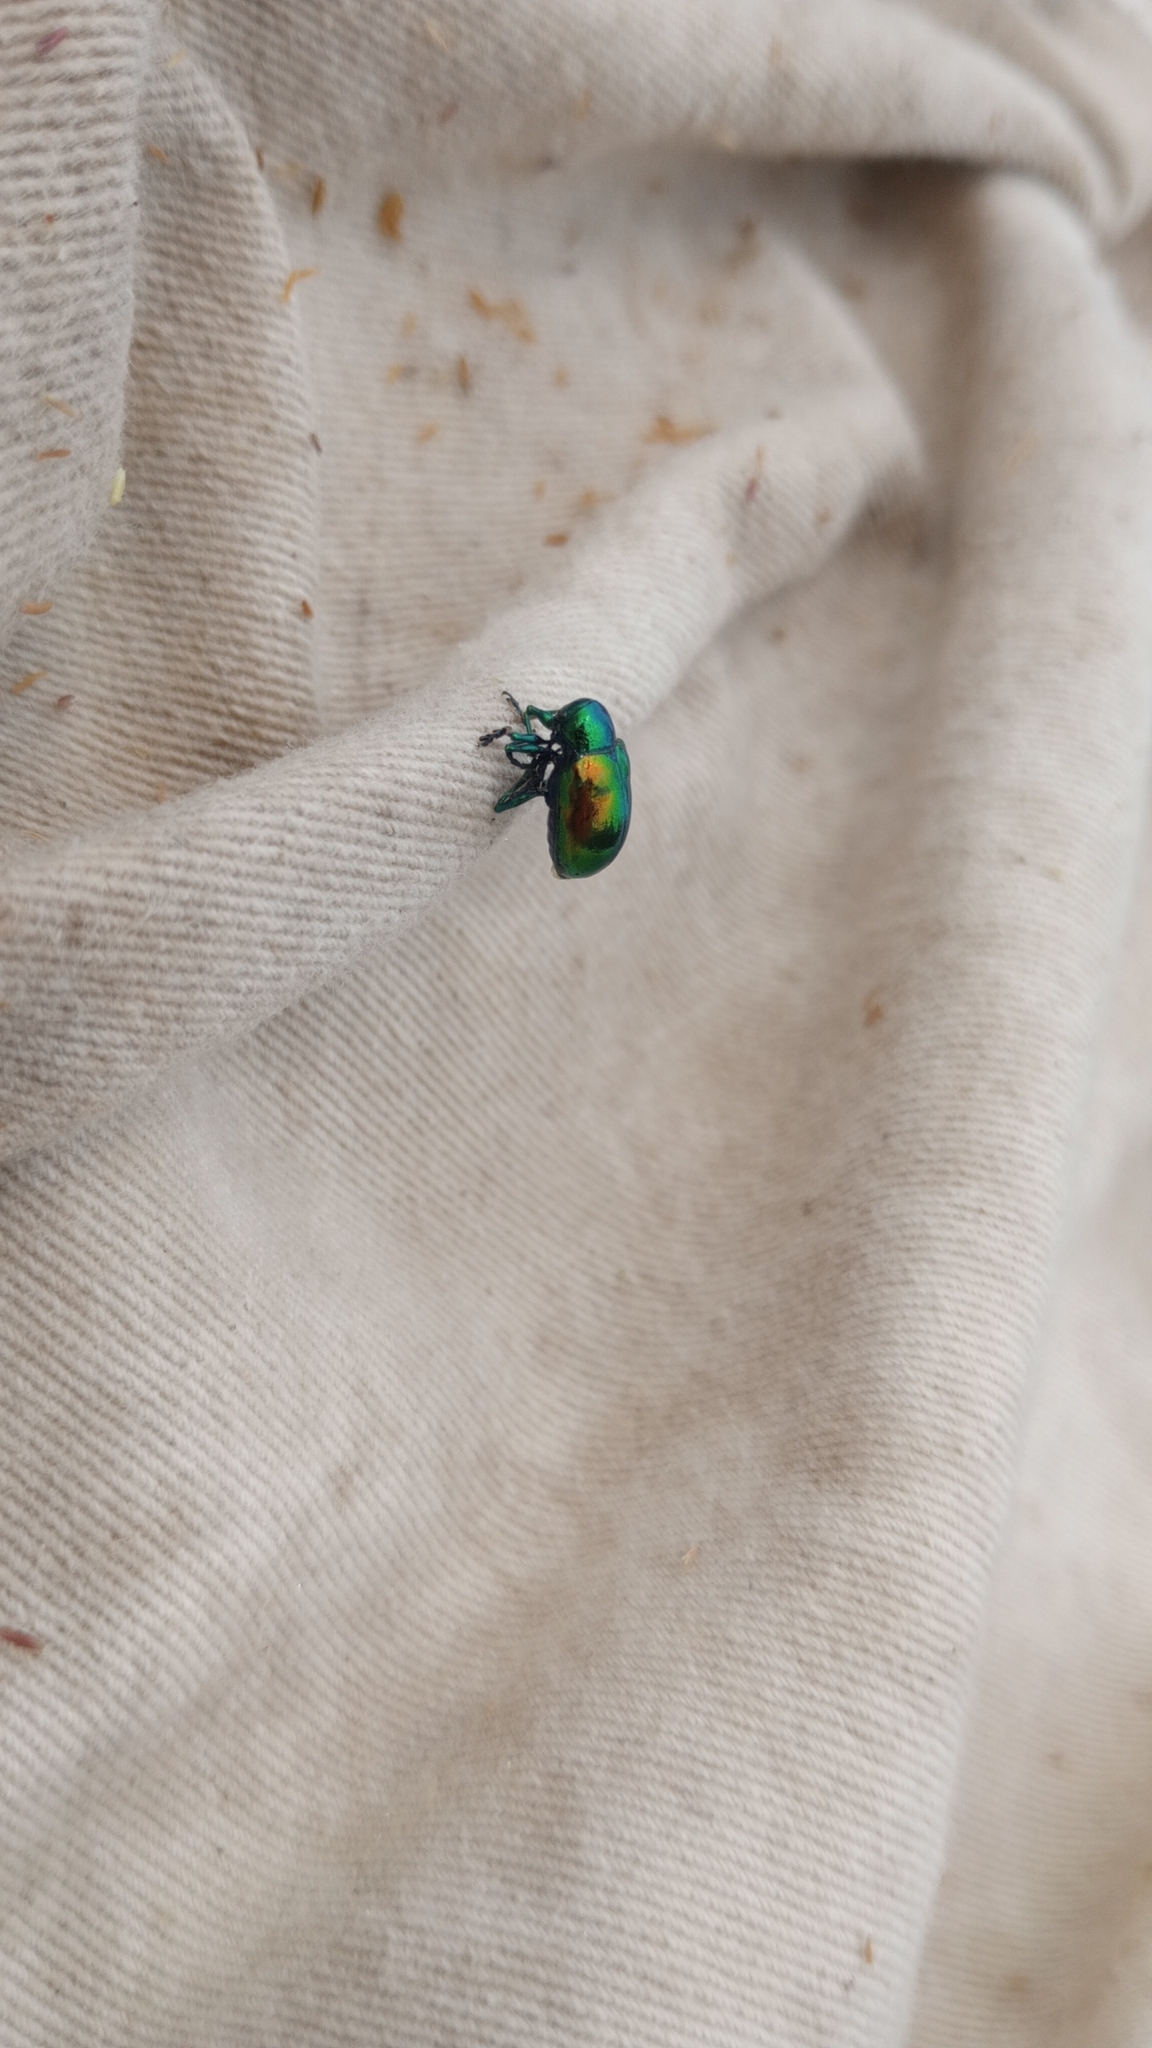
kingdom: Animalia
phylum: Arthropoda
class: Insecta
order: Coleoptera
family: Chrysomelidae
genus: Chrysochus
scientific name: Chrysochus auratus
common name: Dogbane leaf beetle
